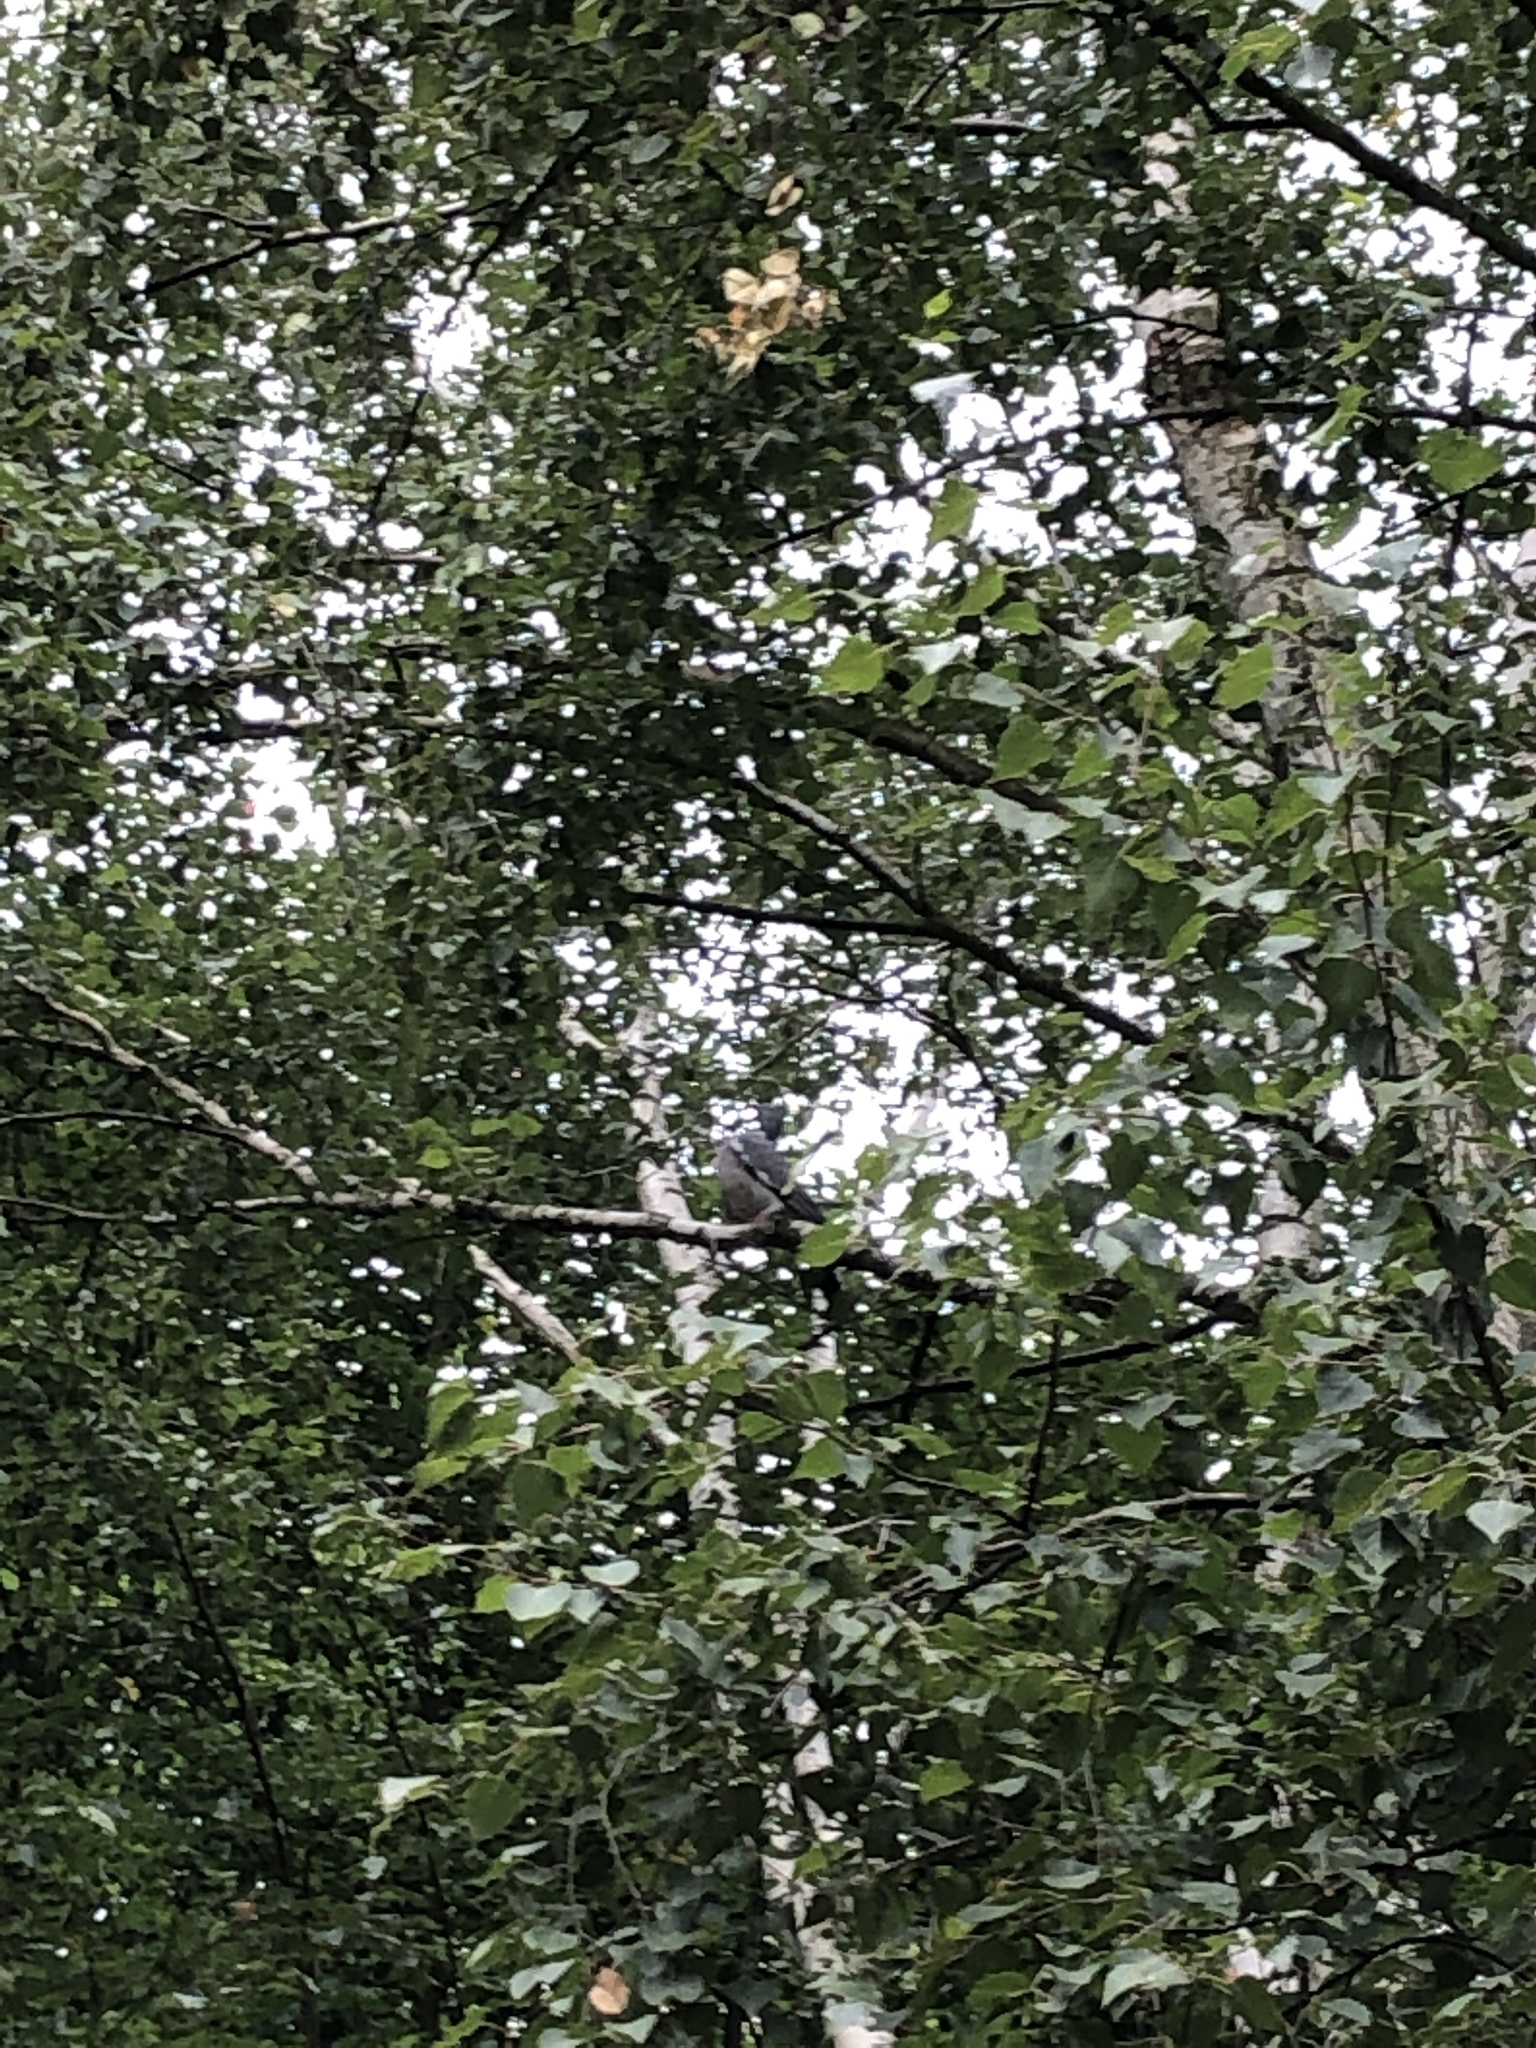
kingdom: Animalia
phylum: Chordata
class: Aves
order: Columbiformes
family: Columbidae
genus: Columba
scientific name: Columba palumbus
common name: Common wood pigeon
